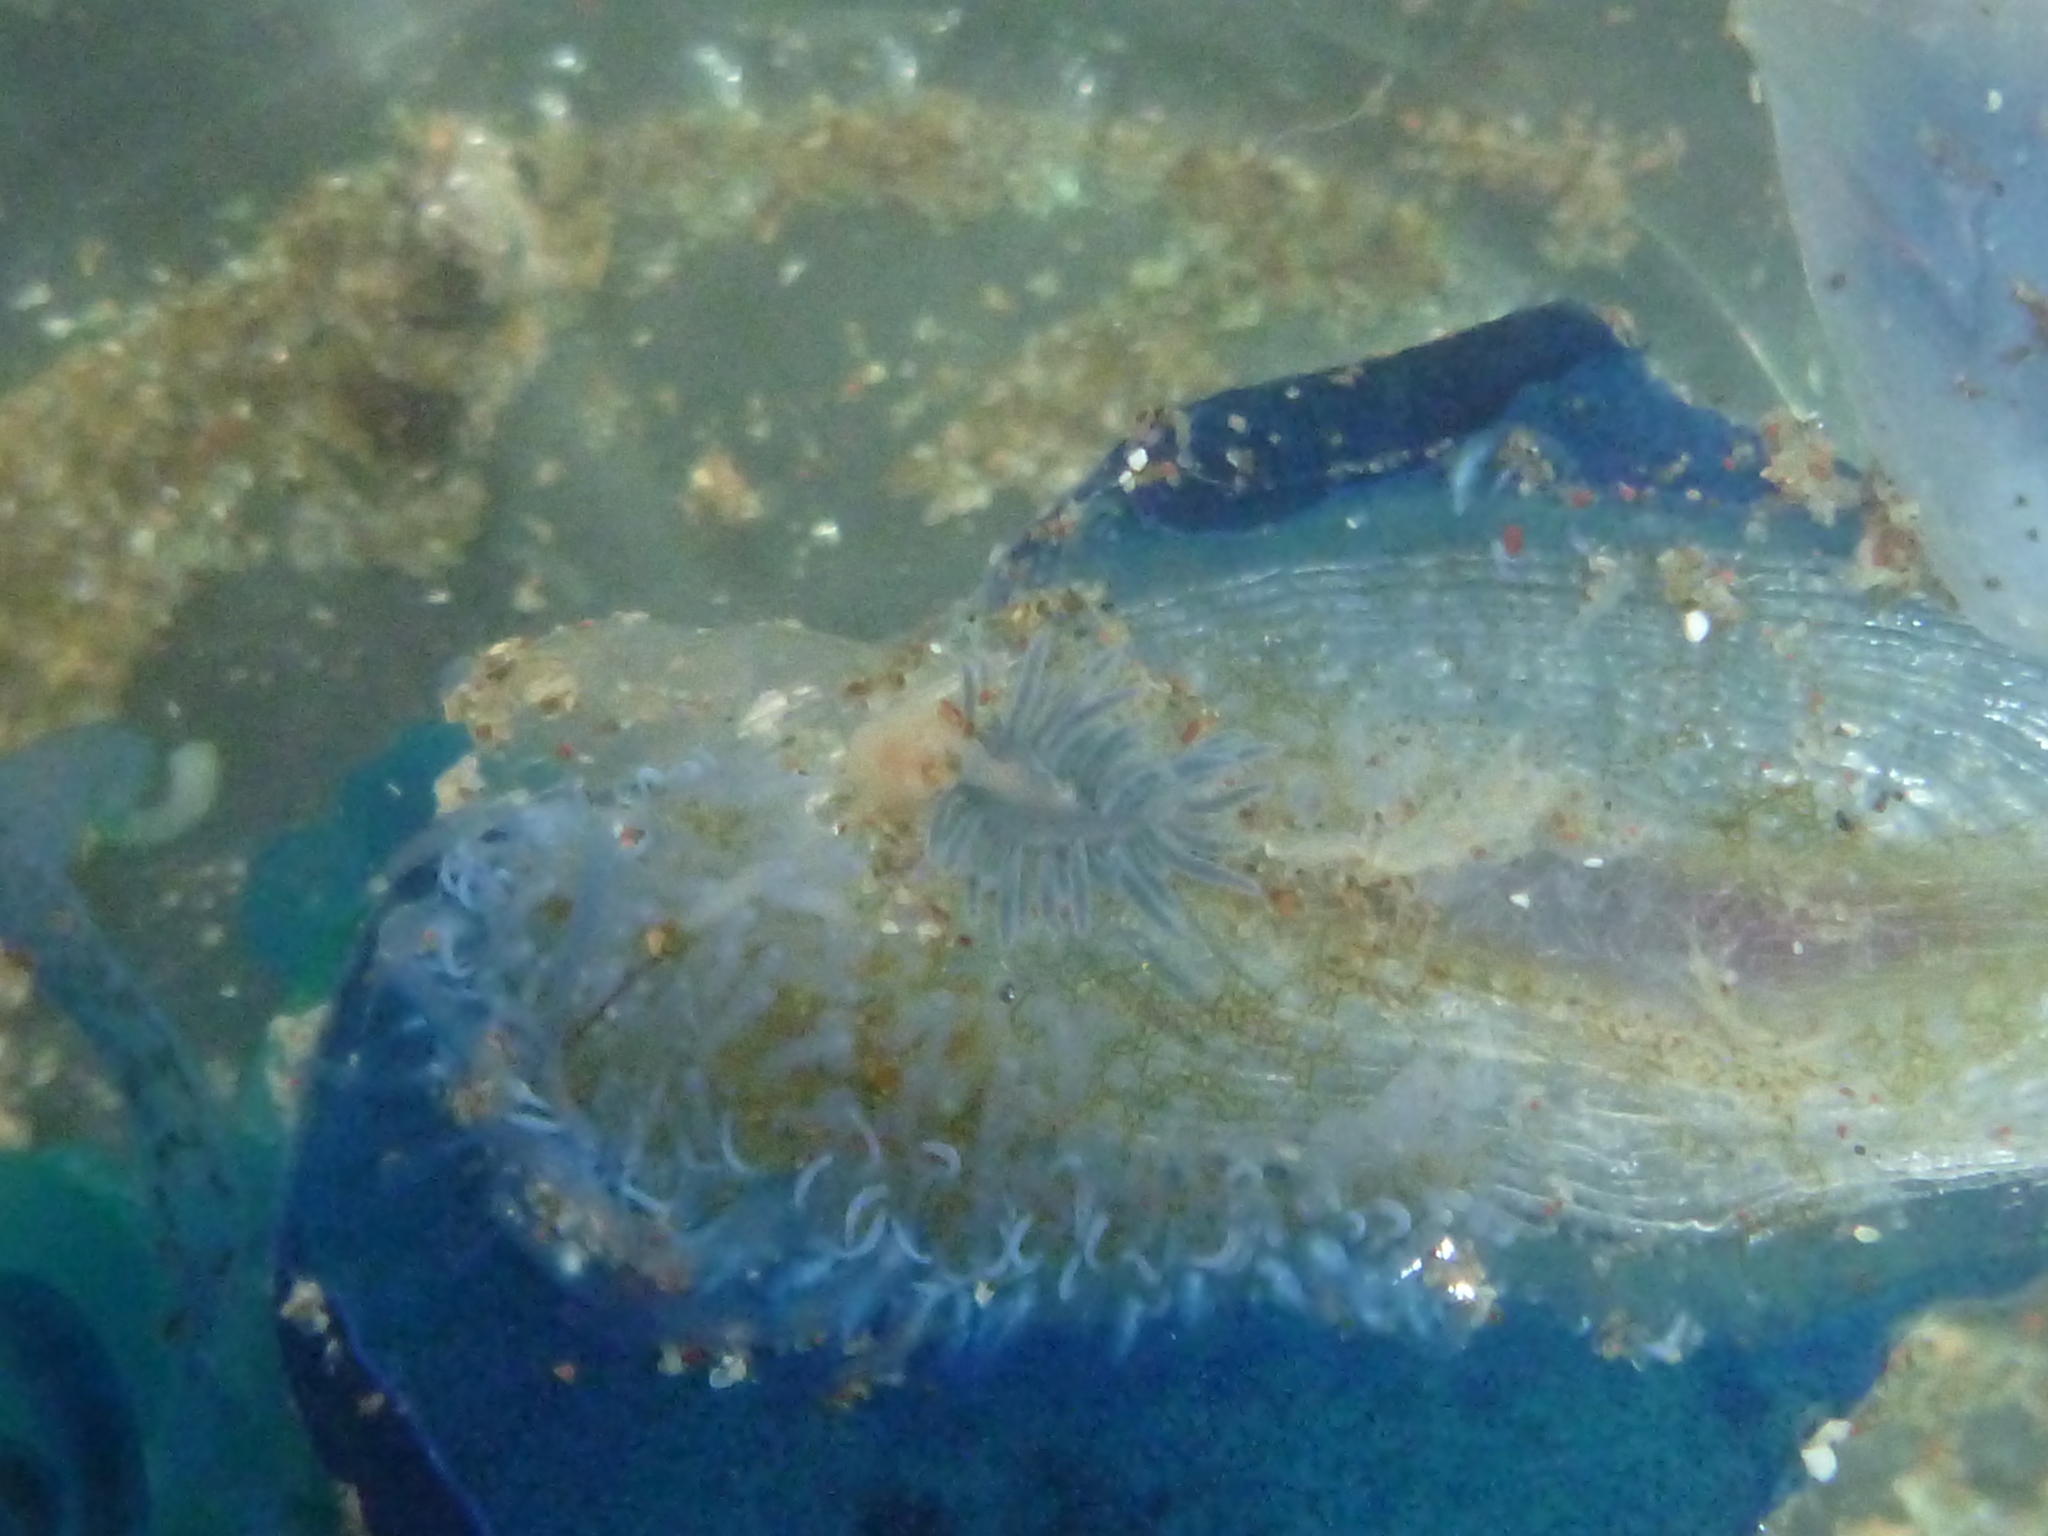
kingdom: Animalia
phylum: Mollusca
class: Gastropoda
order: Nudibranchia
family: Fionidae
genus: Fiona
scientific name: Fiona pinnata
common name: Fiona
